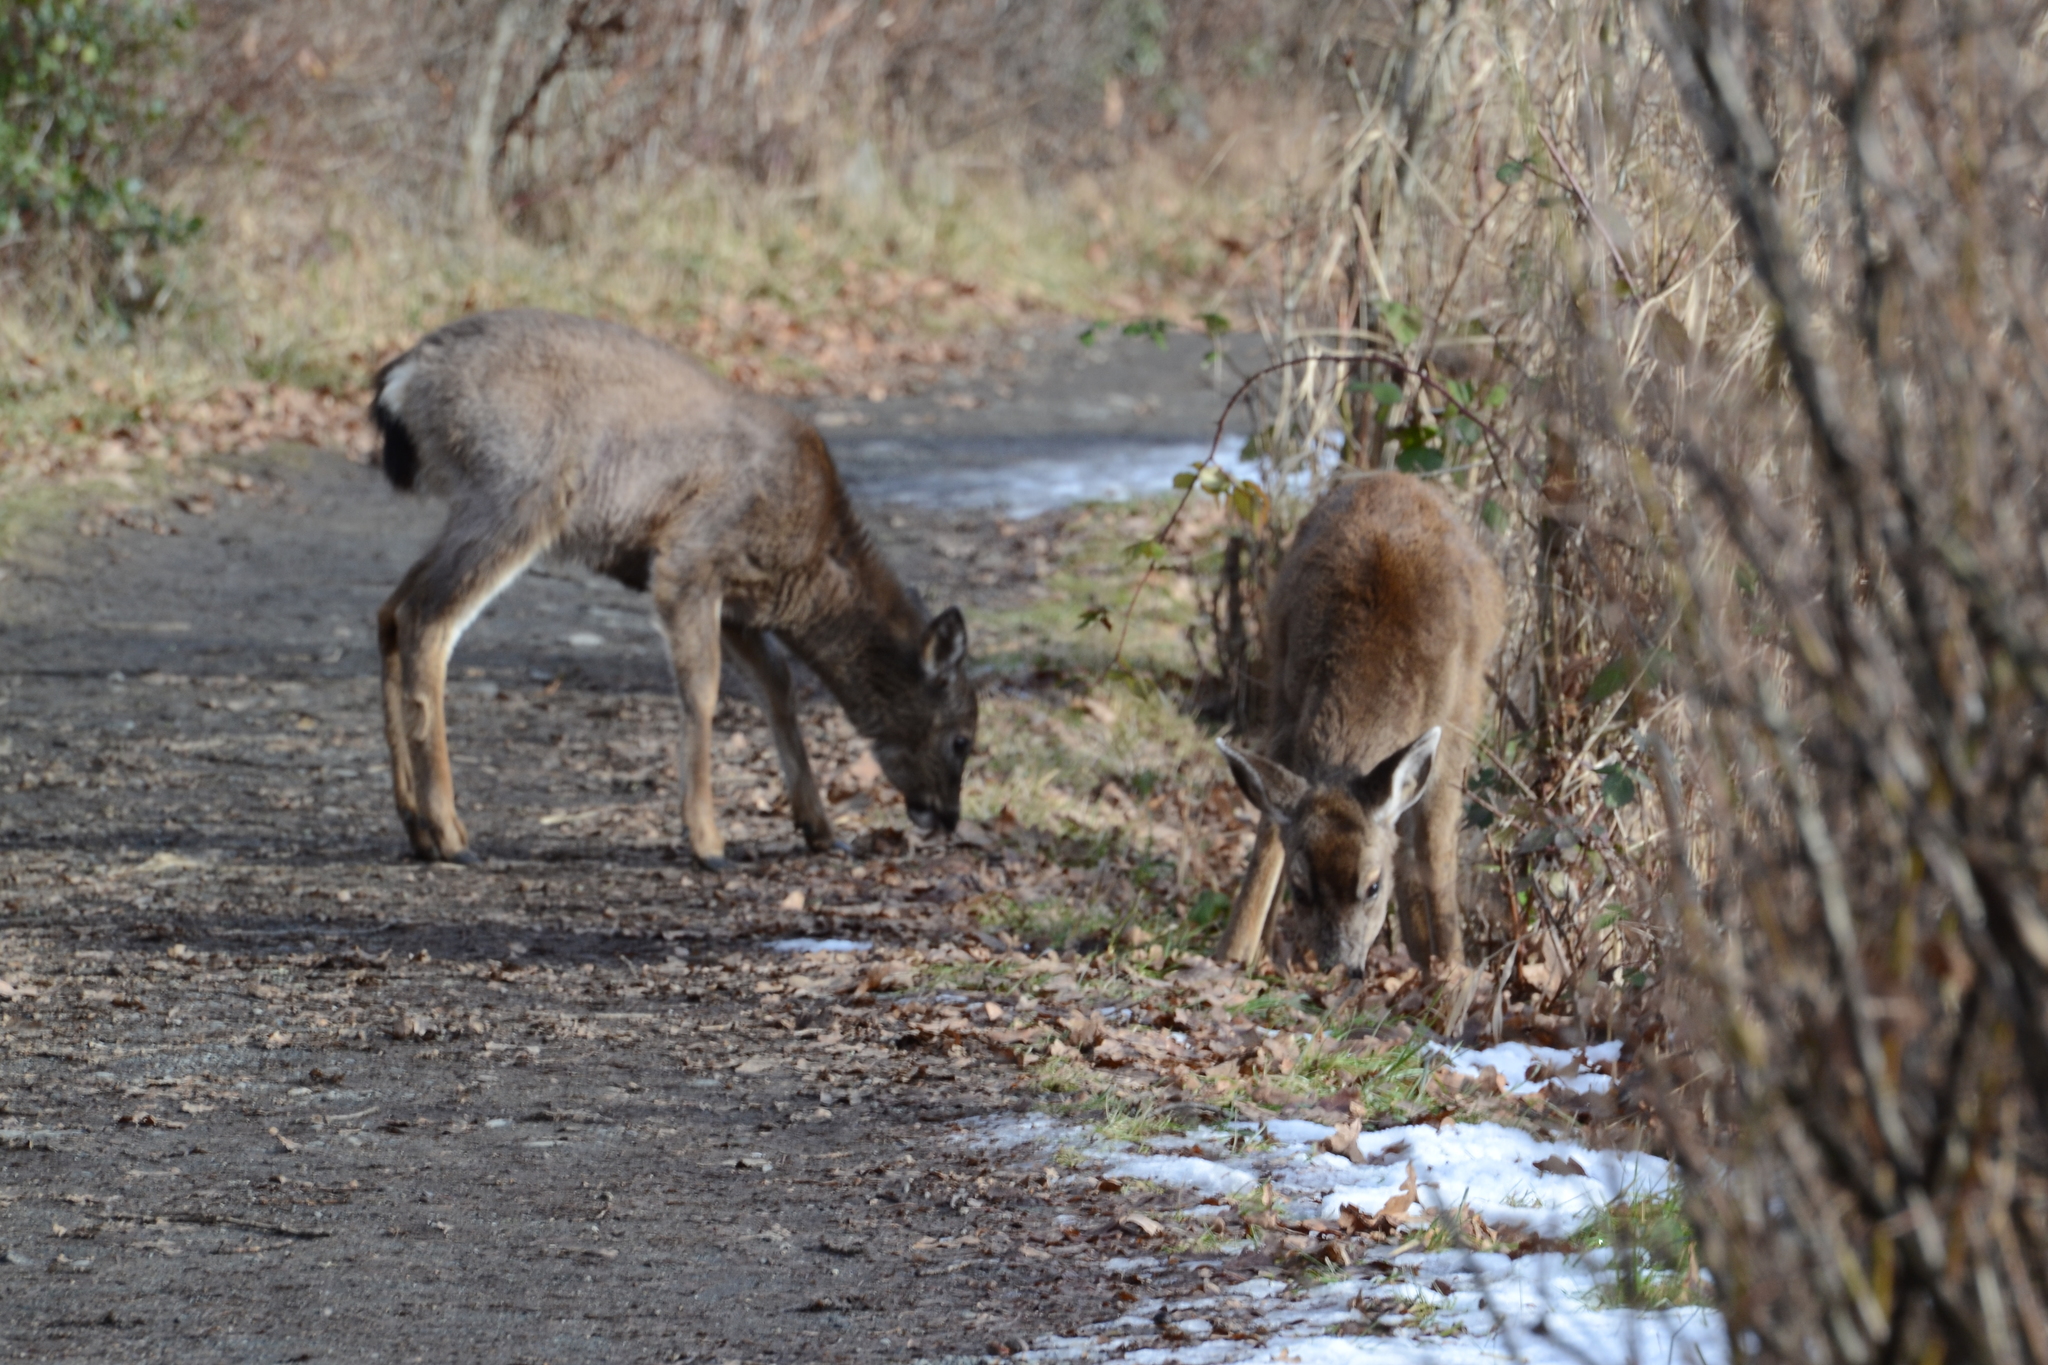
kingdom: Animalia
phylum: Chordata
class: Mammalia
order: Artiodactyla
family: Cervidae
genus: Odocoileus
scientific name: Odocoileus hemionus
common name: Mule deer
